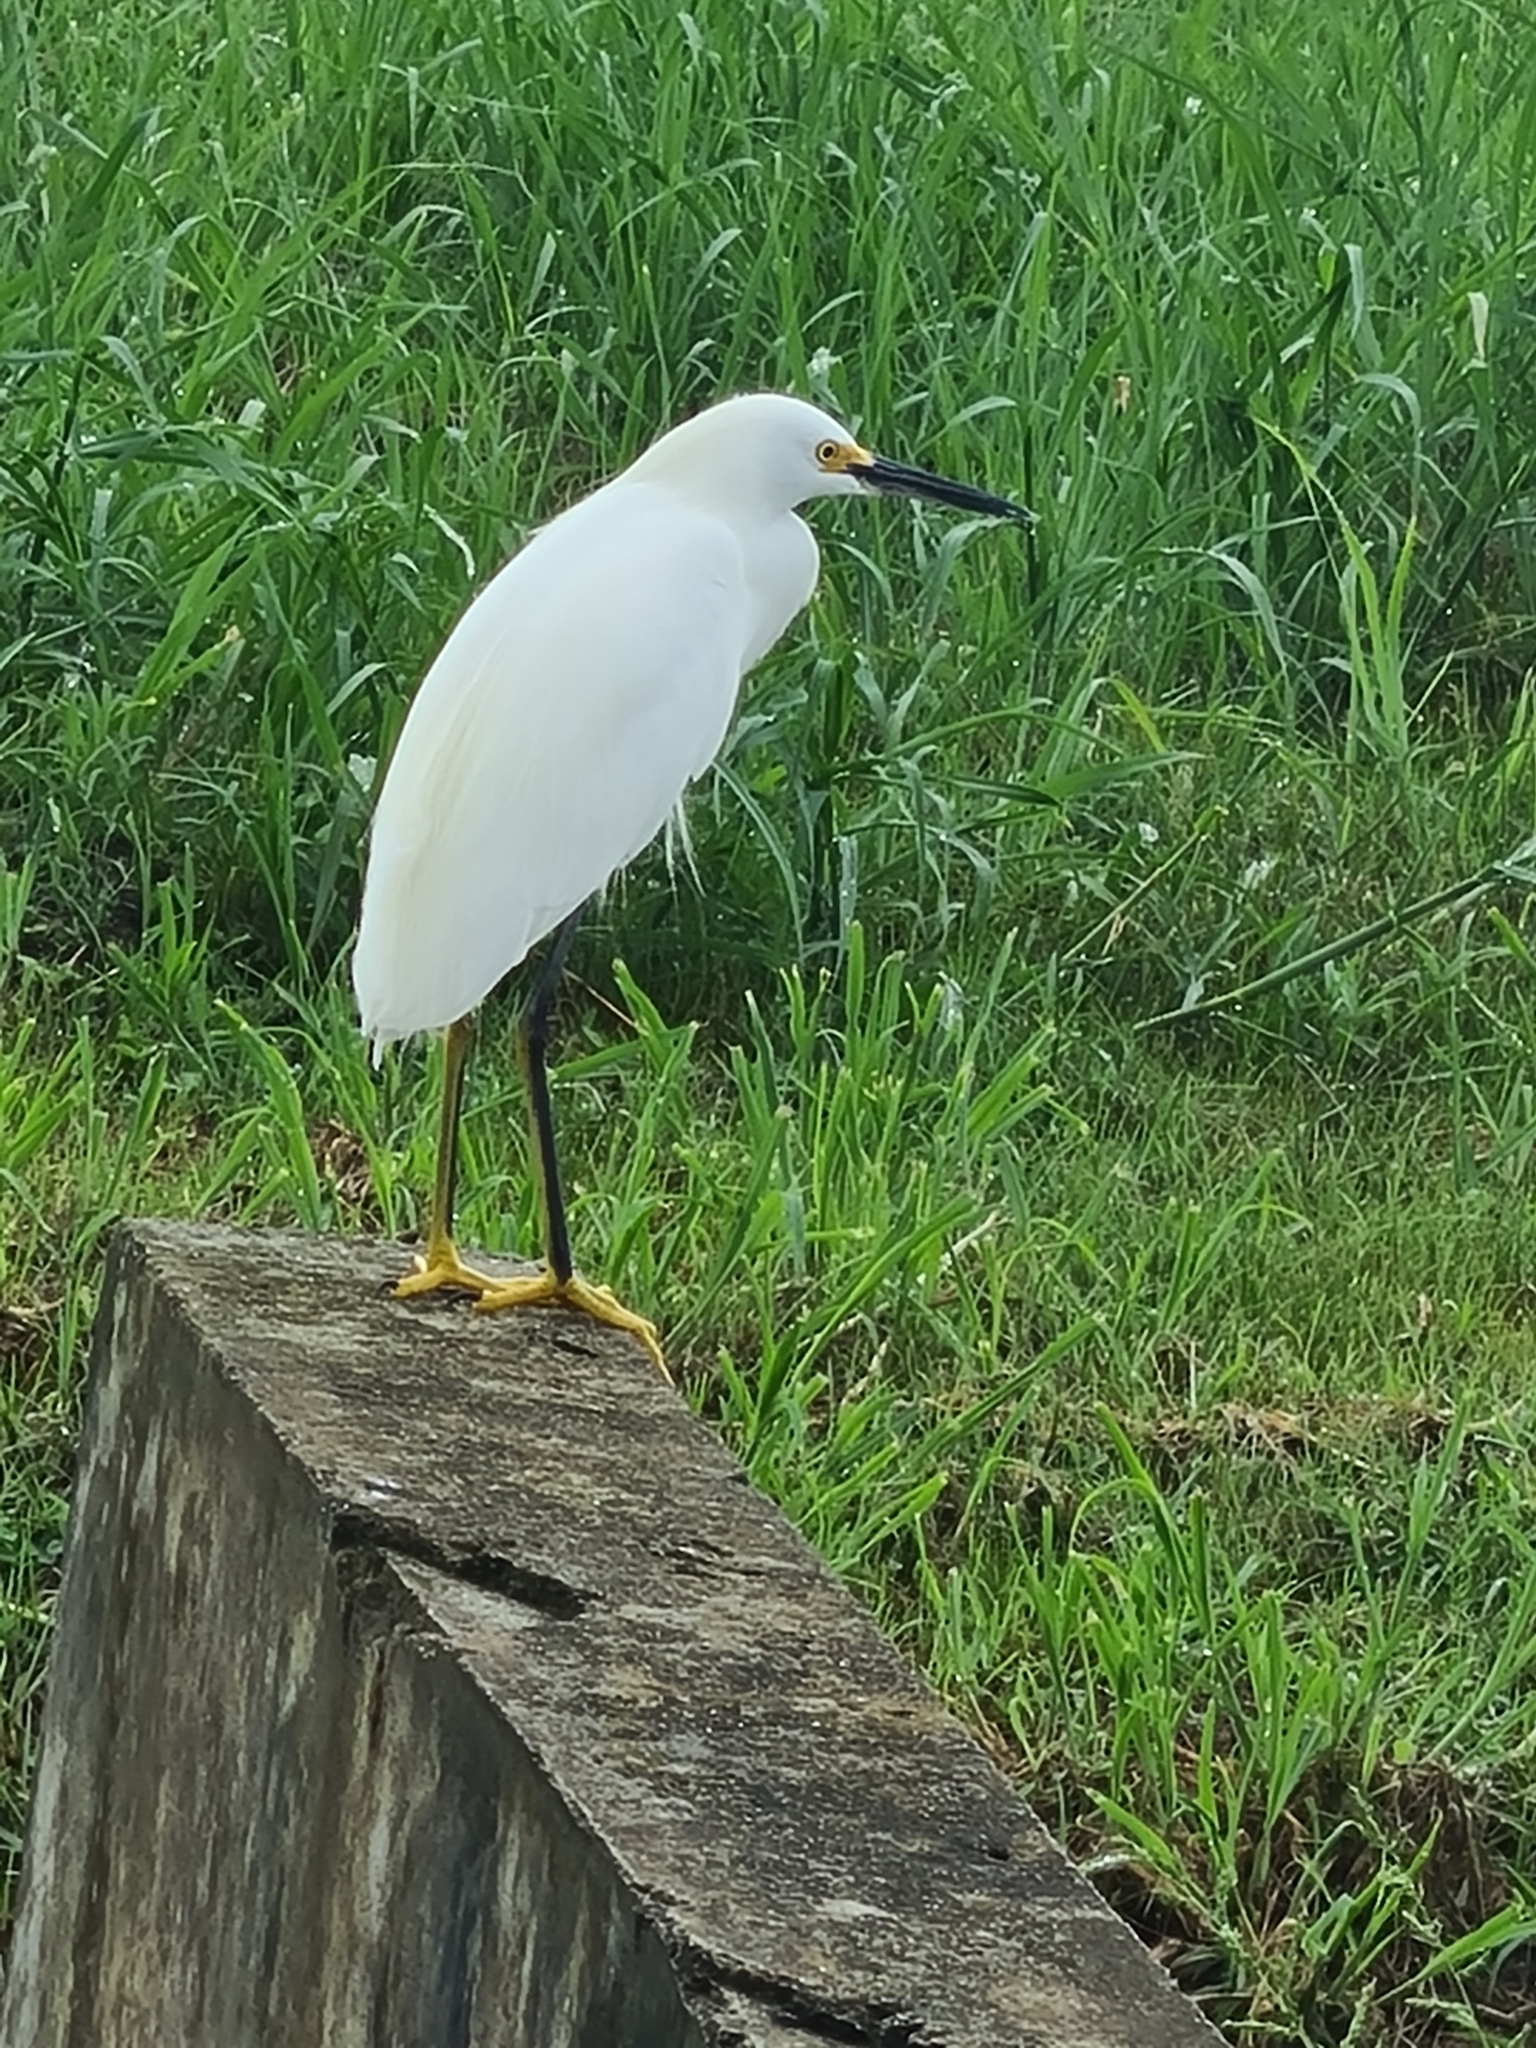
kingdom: Animalia
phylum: Chordata
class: Aves
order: Pelecaniformes
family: Ardeidae
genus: Egretta
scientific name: Egretta thula
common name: Snowy egret
